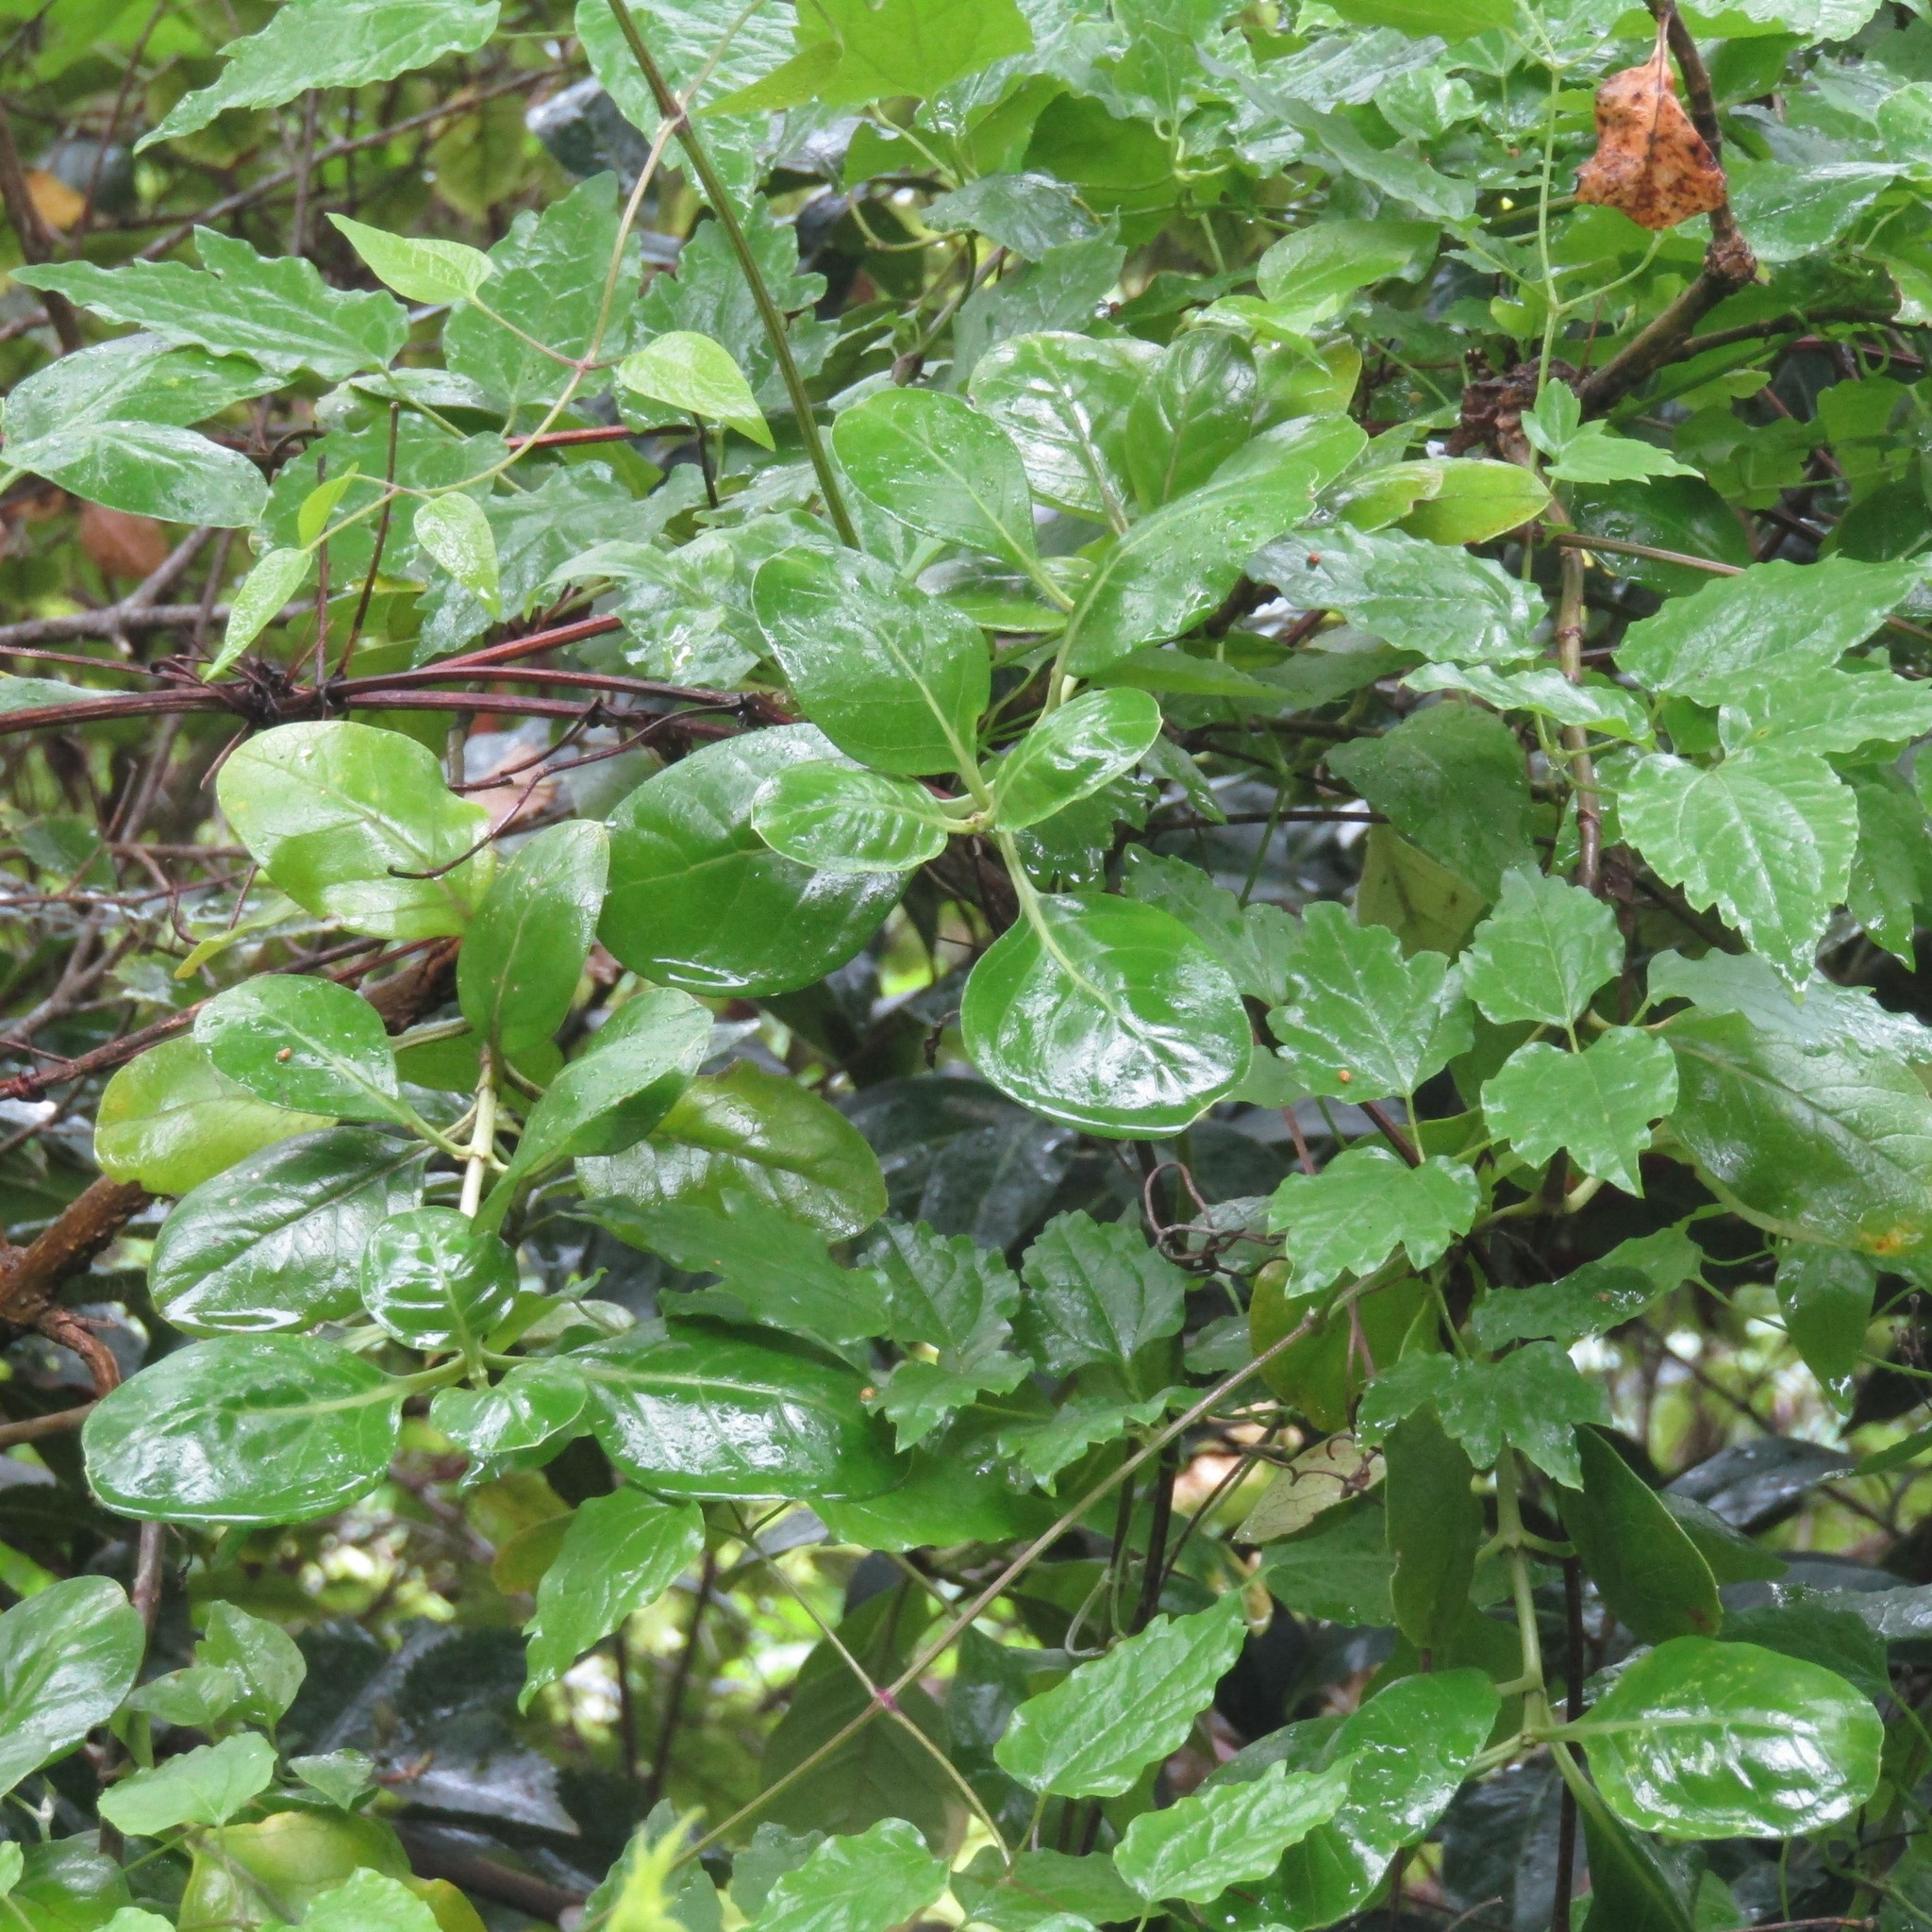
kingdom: Plantae
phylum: Tracheophyta
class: Magnoliopsida
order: Gentianales
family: Rubiaceae
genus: Coprosma
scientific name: Coprosma repens
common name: Tree bedstraw
